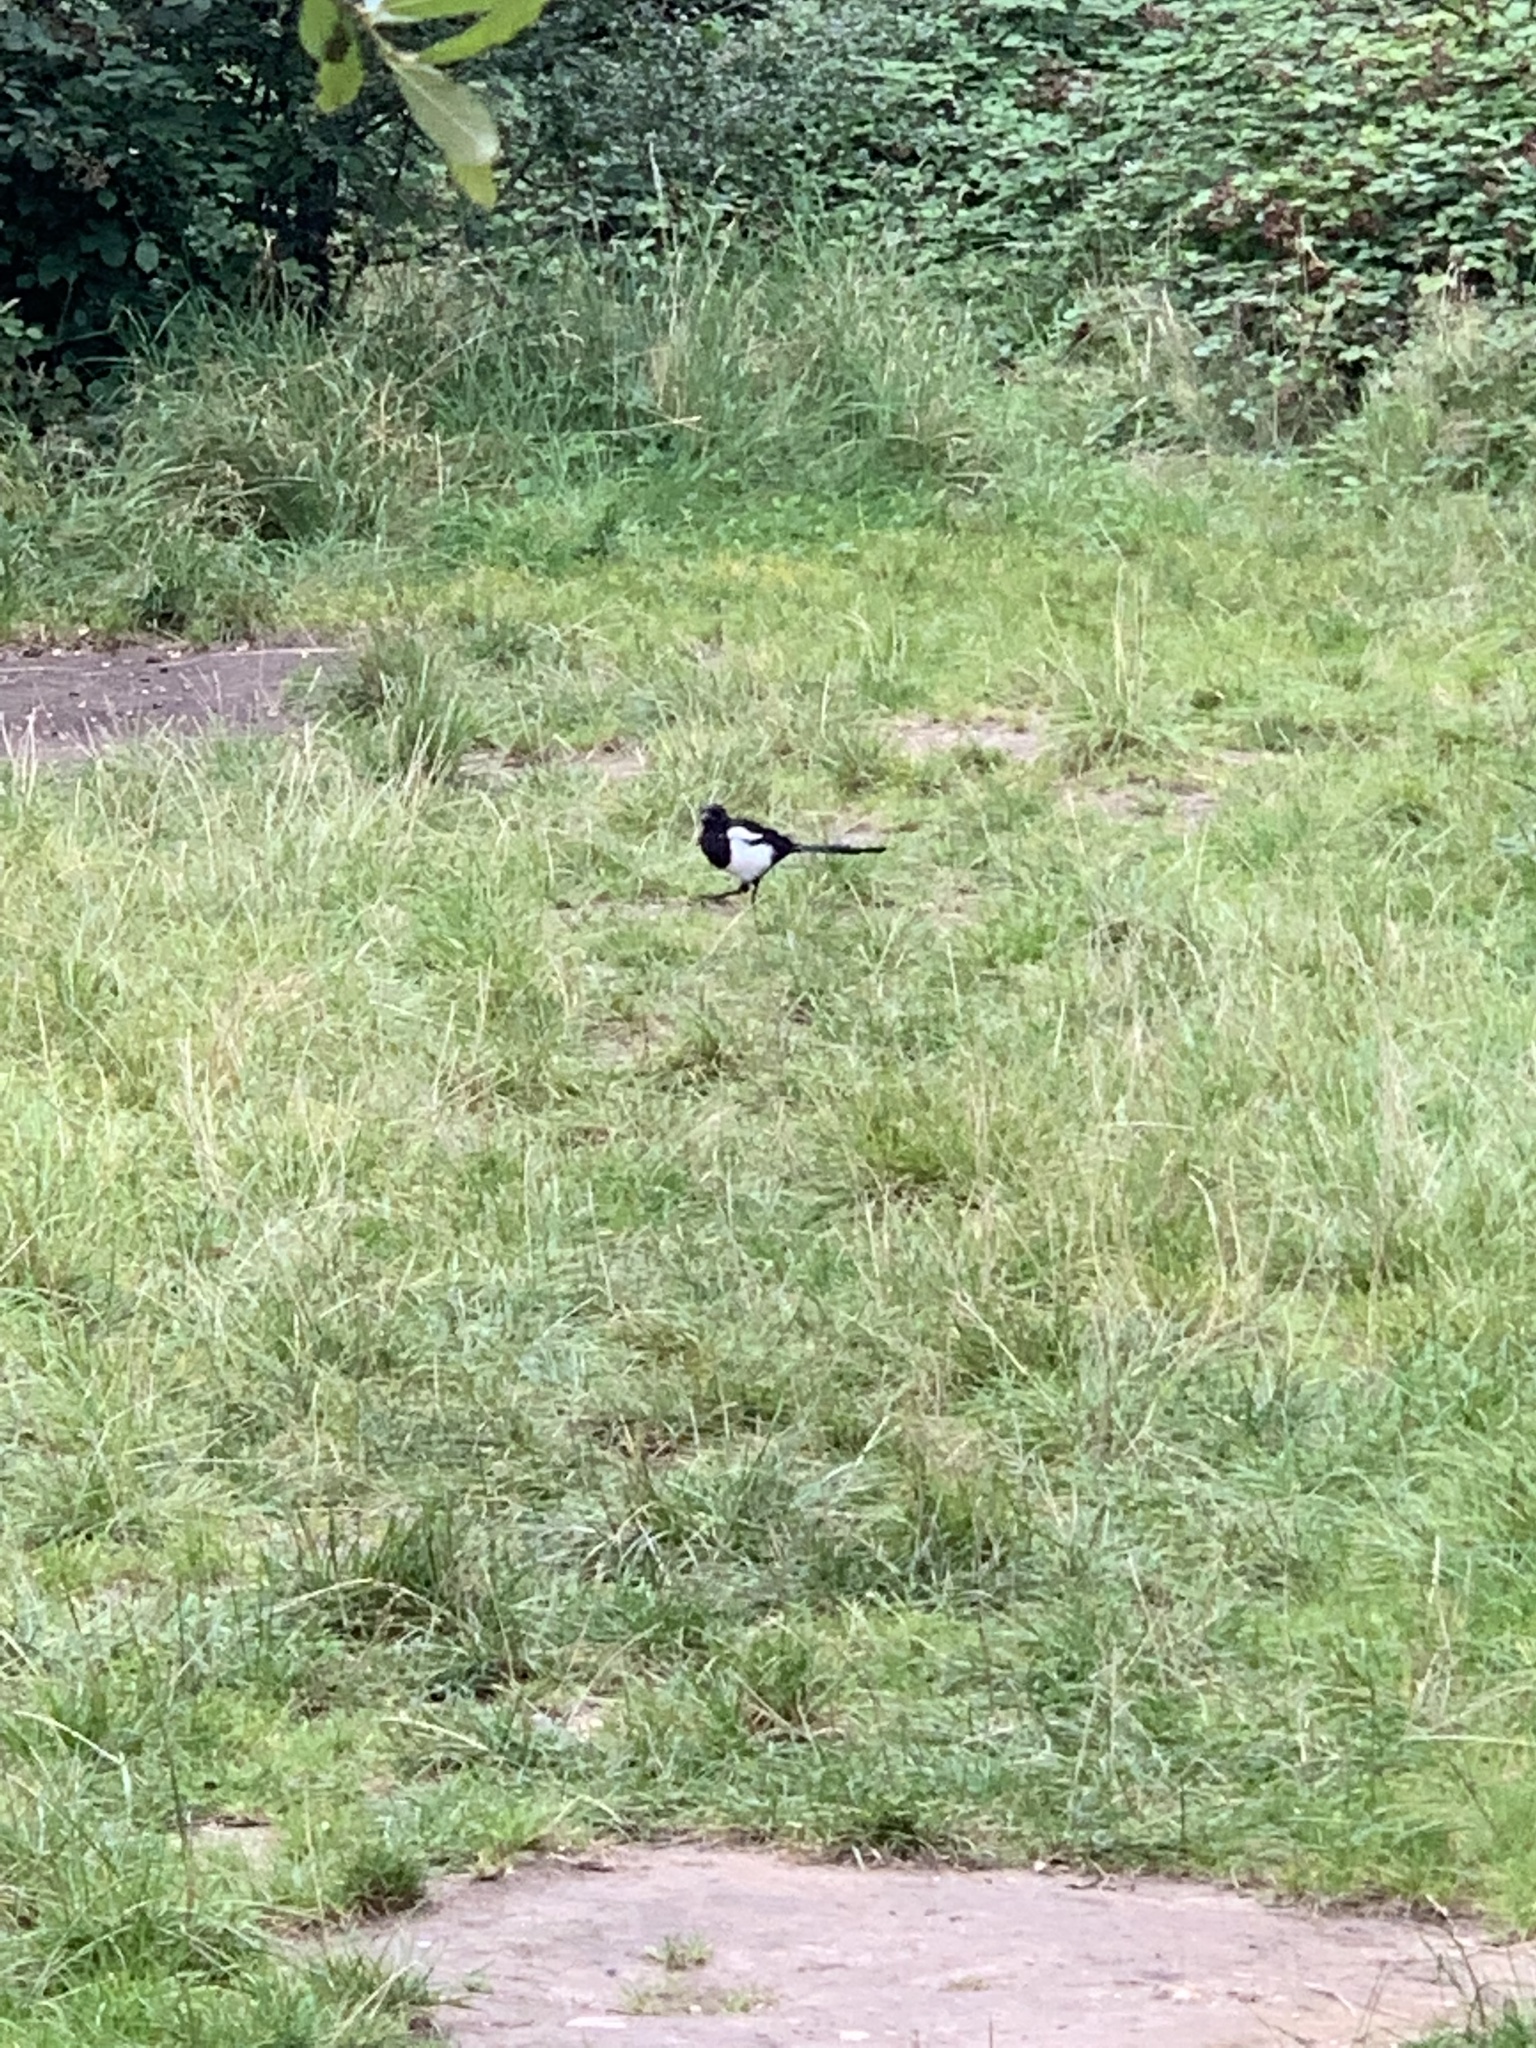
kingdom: Animalia
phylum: Chordata
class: Aves
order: Passeriformes
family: Corvidae
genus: Pica
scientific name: Pica pica
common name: Eurasian magpie
